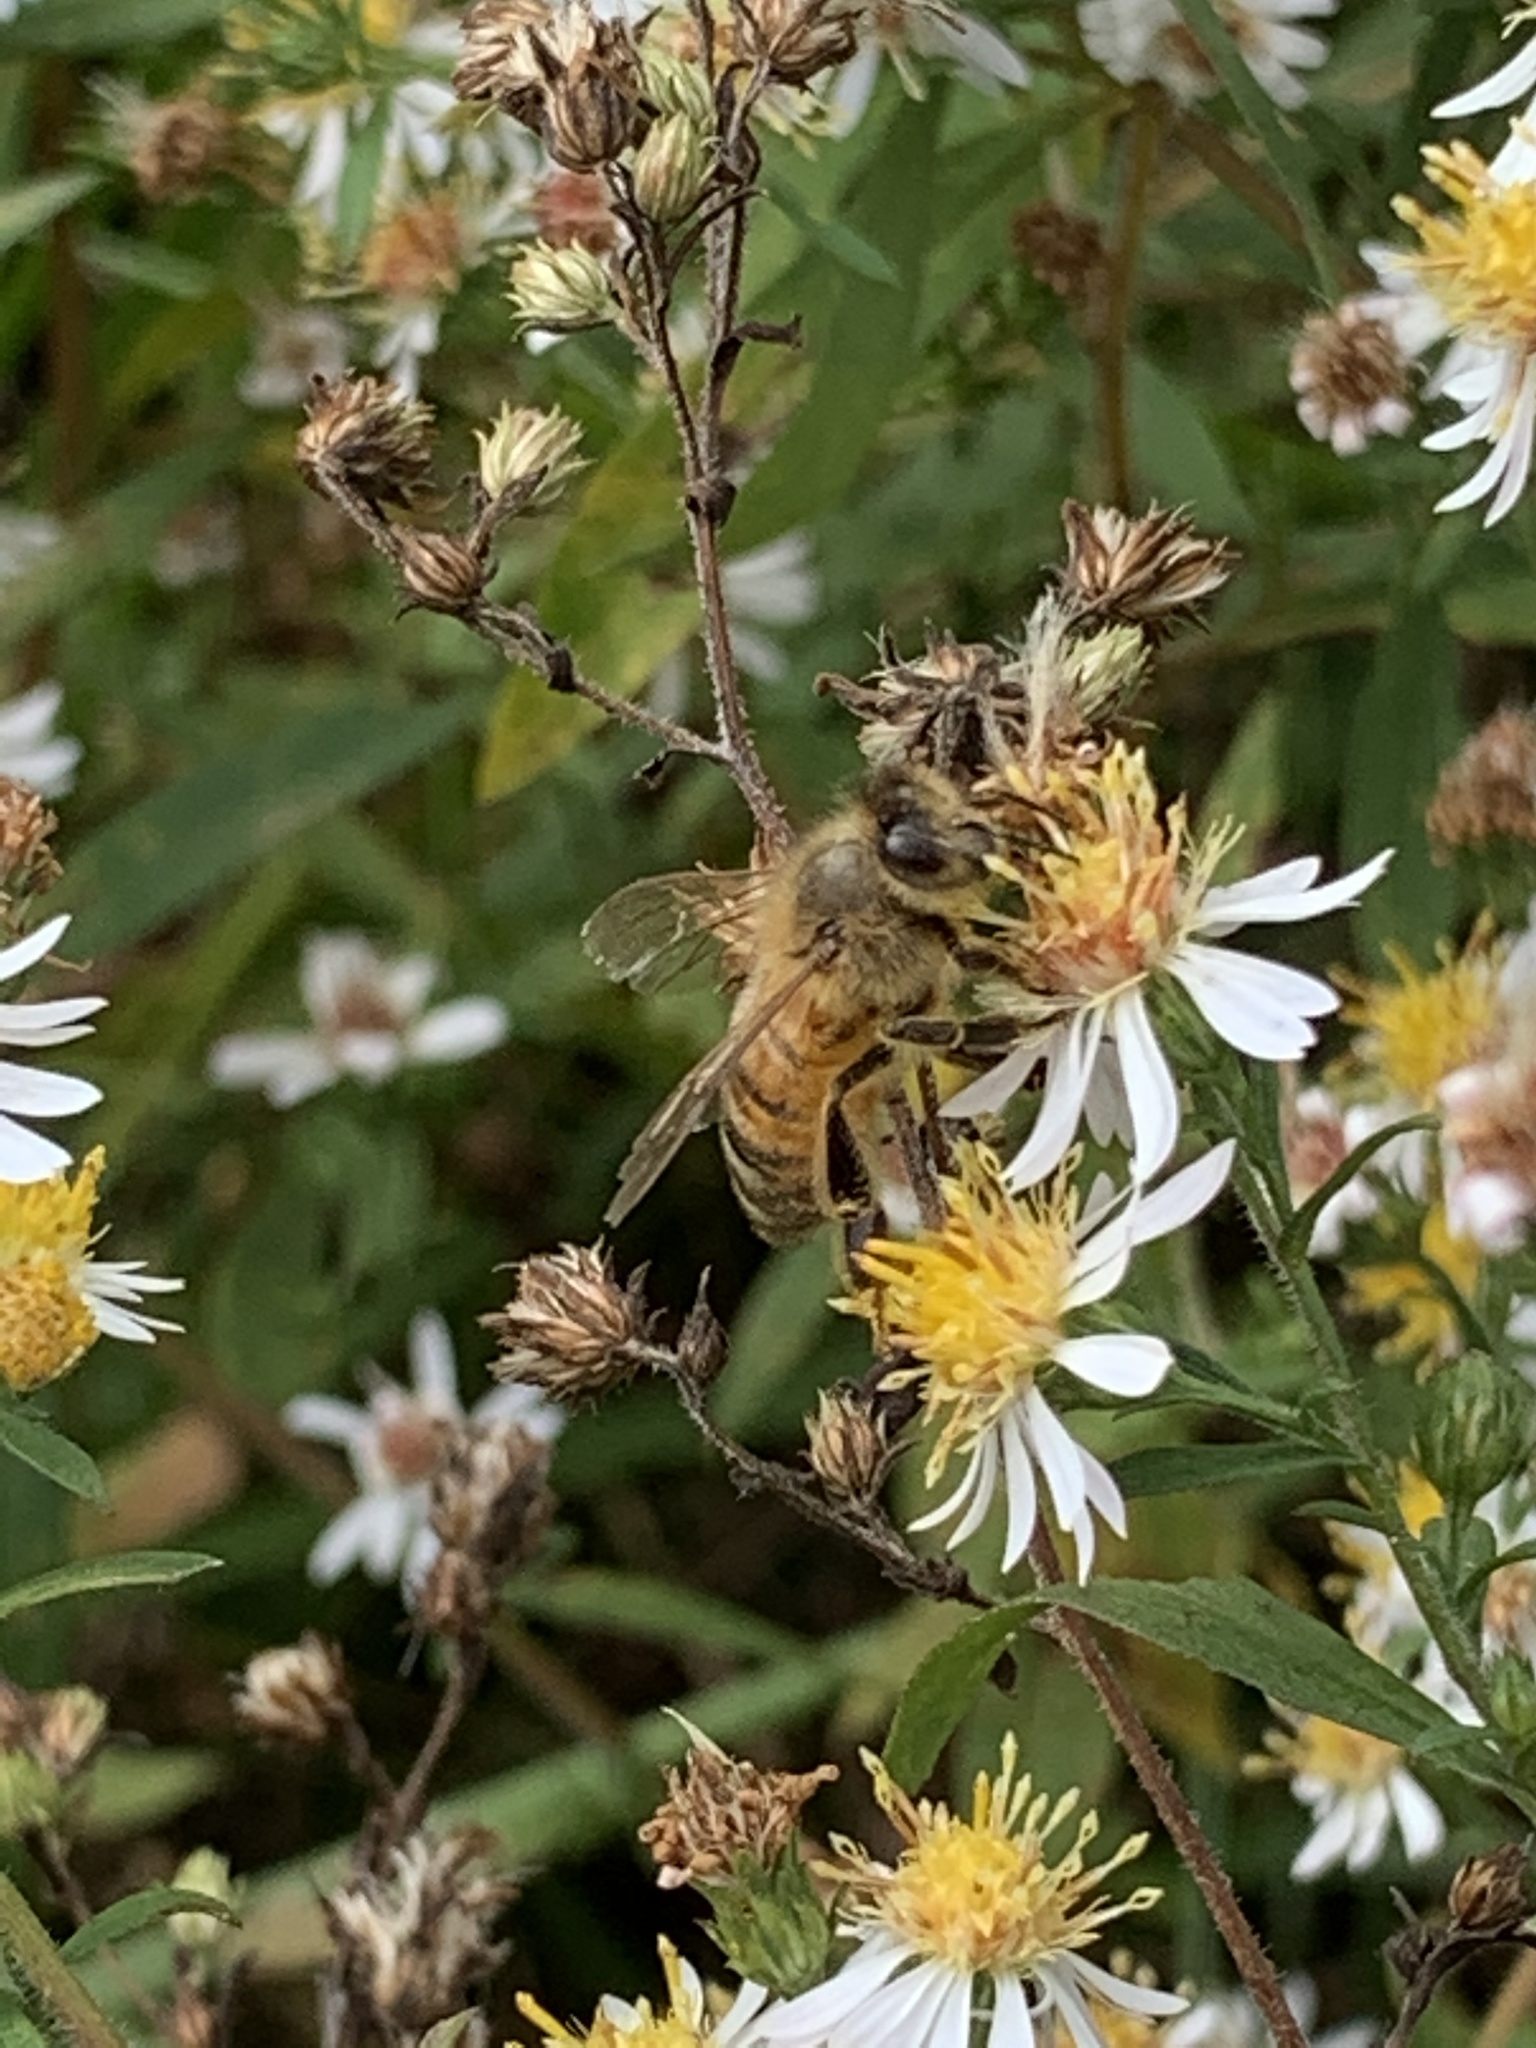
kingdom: Animalia
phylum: Arthropoda
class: Insecta
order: Hymenoptera
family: Apidae
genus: Apis
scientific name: Apis mellifera
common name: Honey bee
